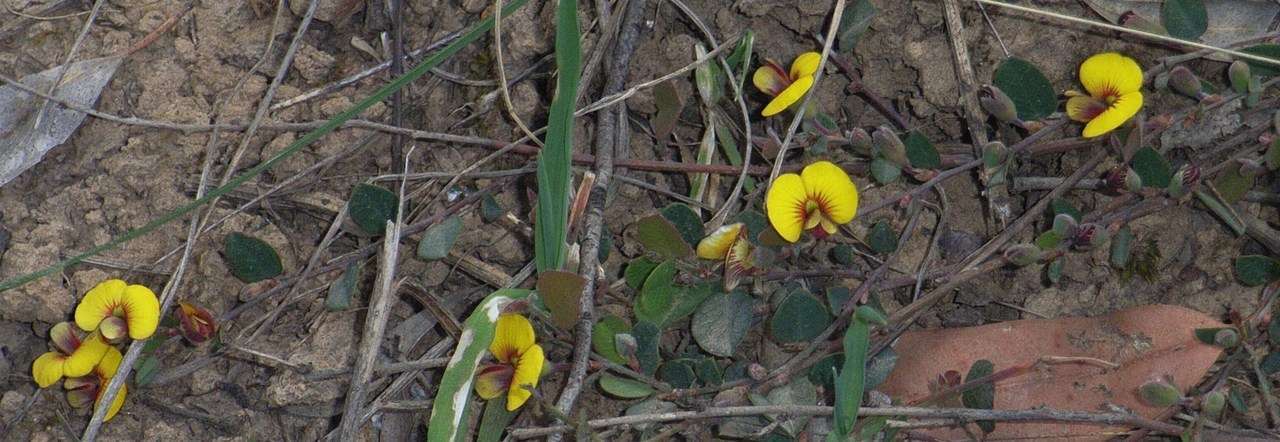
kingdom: Plantae
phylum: Tracheophyta
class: Magnoliopsida
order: Fabales
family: Fabaceae
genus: Bossiaea
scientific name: Bossiaea prostrata
